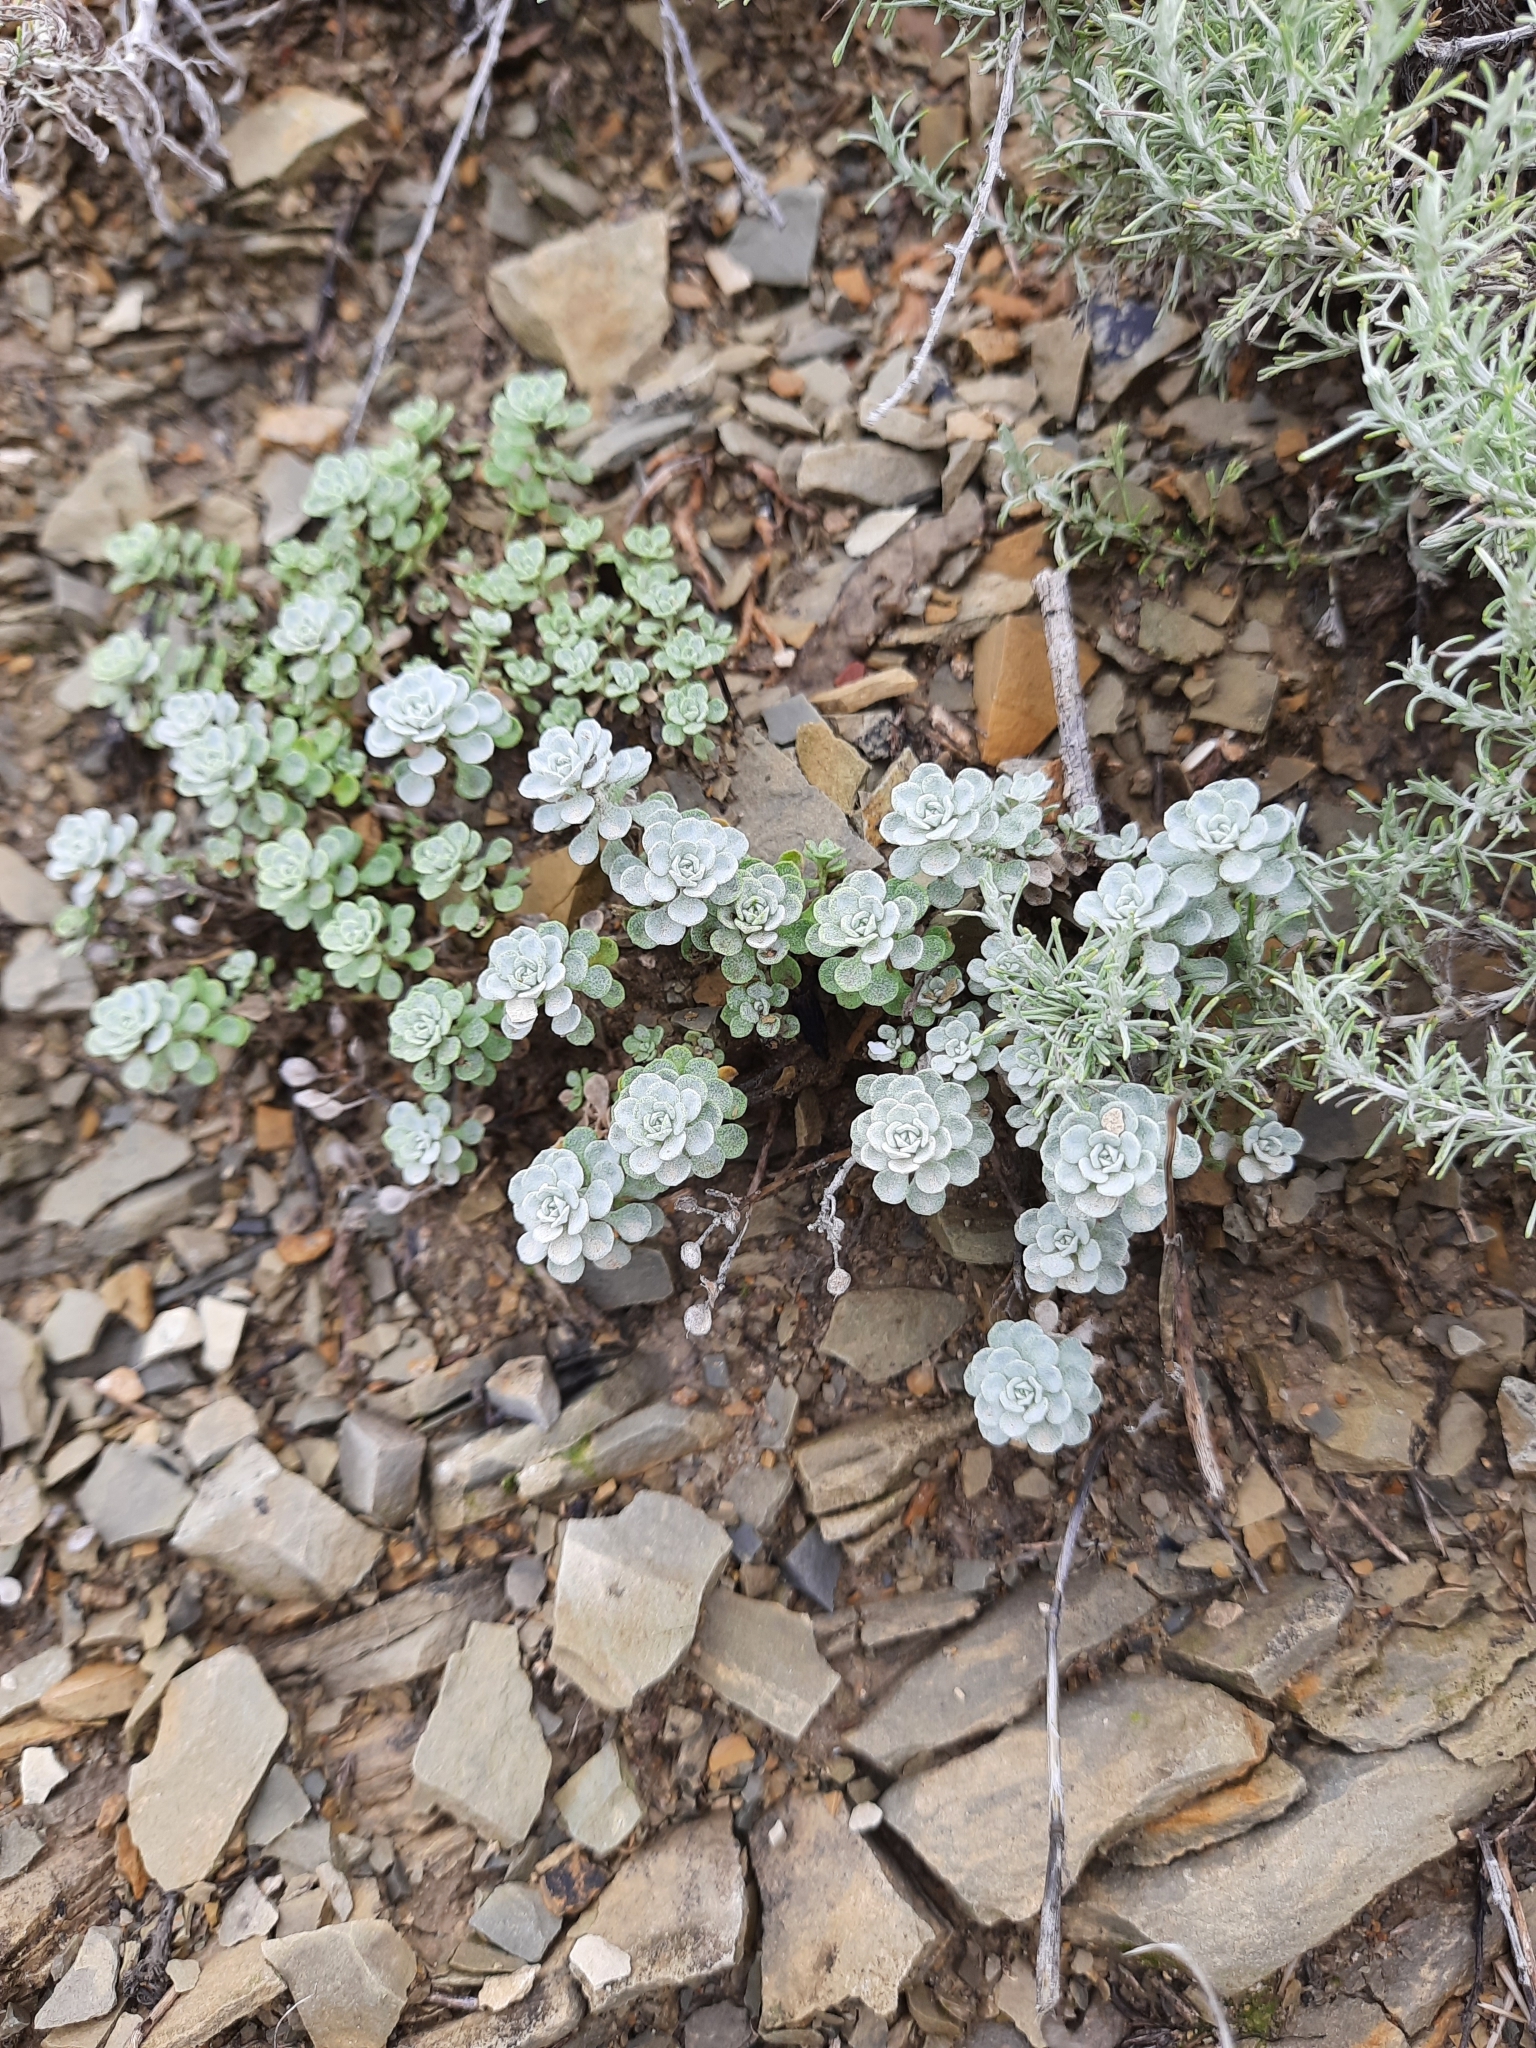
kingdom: Plantae
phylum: Tracheophyta
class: Magnoliopsida
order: Brassicales
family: Brassicaceae
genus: Odontarrhena
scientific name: Odontarrhena obtusifolia
